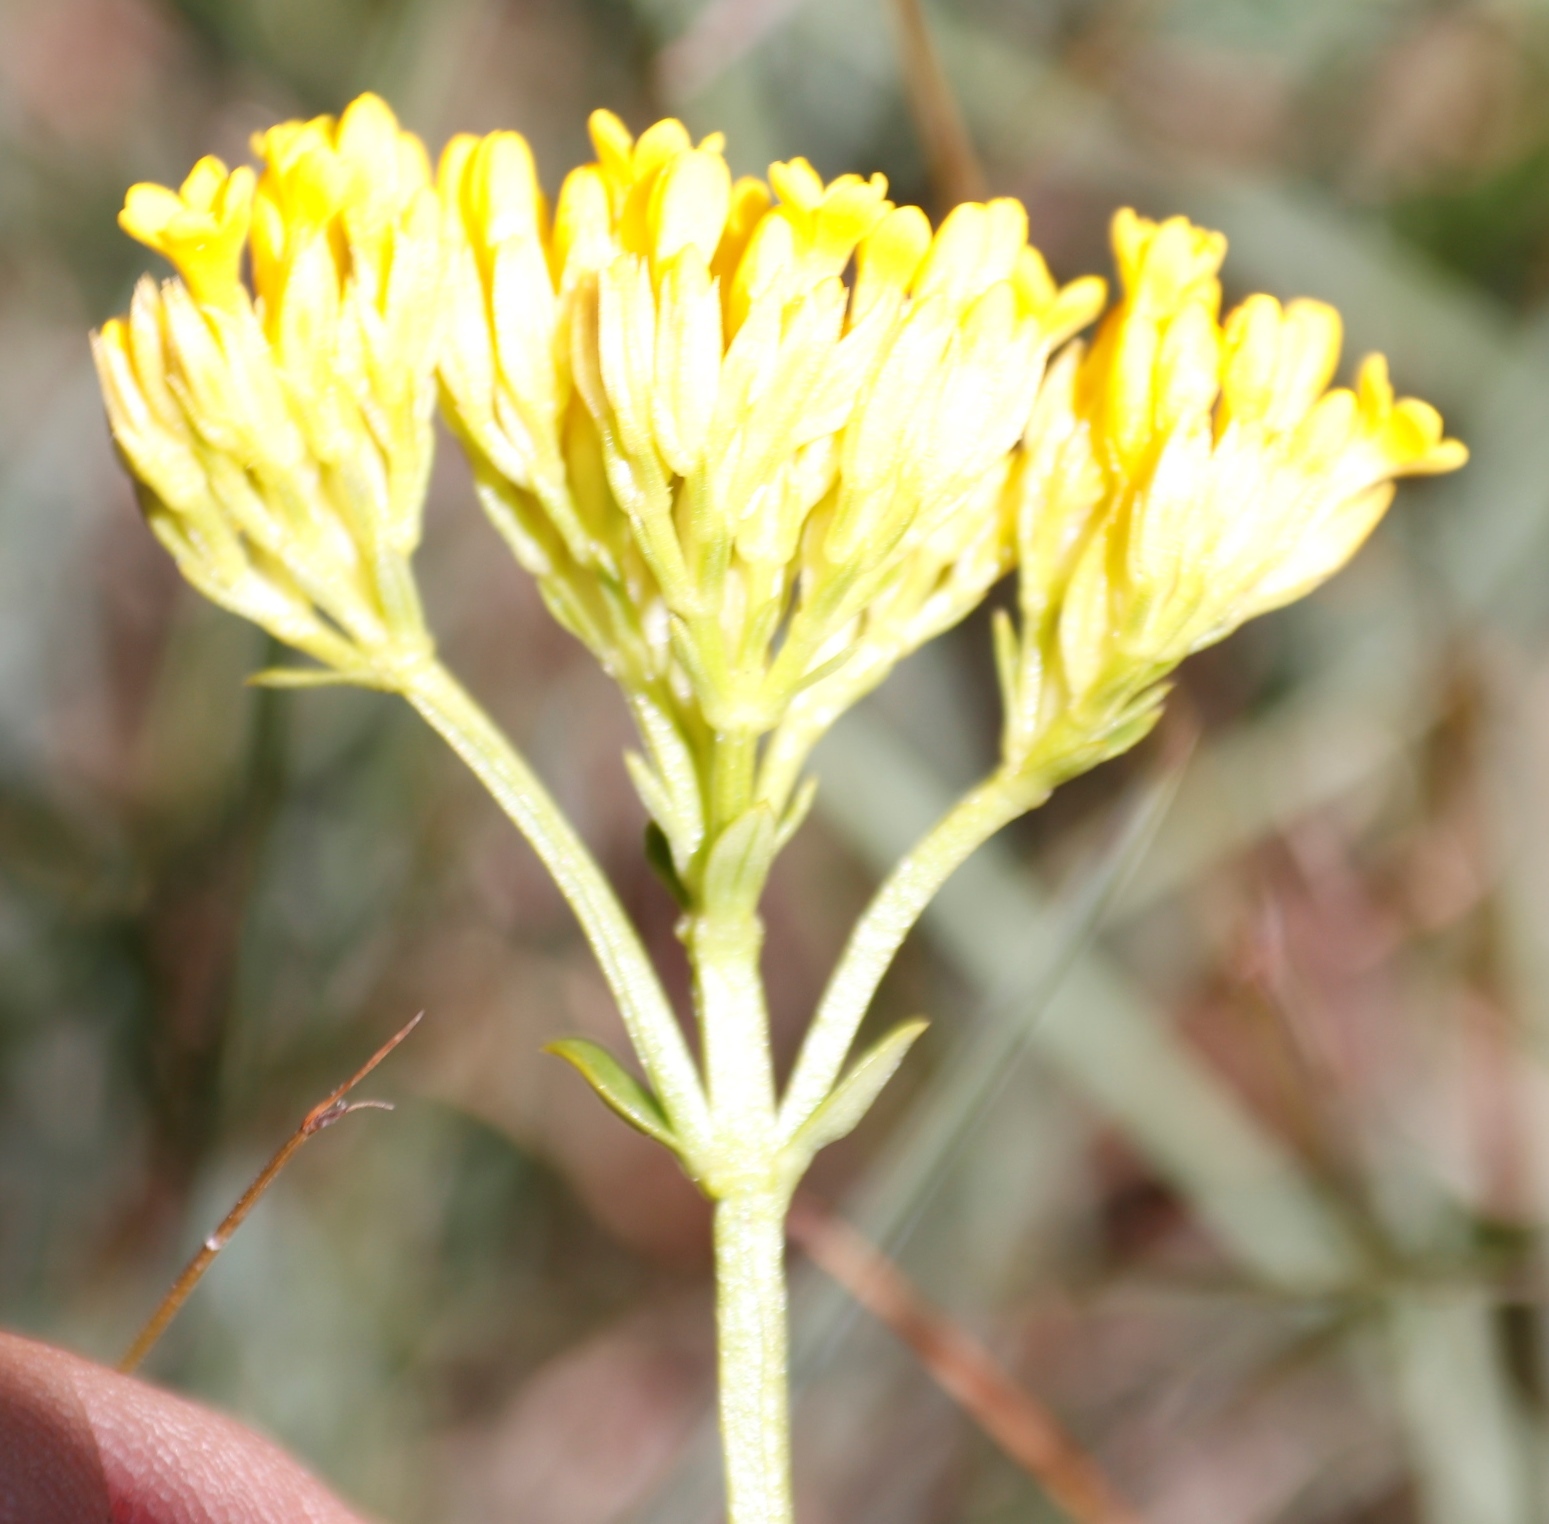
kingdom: Plantae
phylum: Tracheophyta
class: Magnoliopsida
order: Gentianales
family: Gentianaceae
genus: Sebaea
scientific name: Sebaea sedoides
